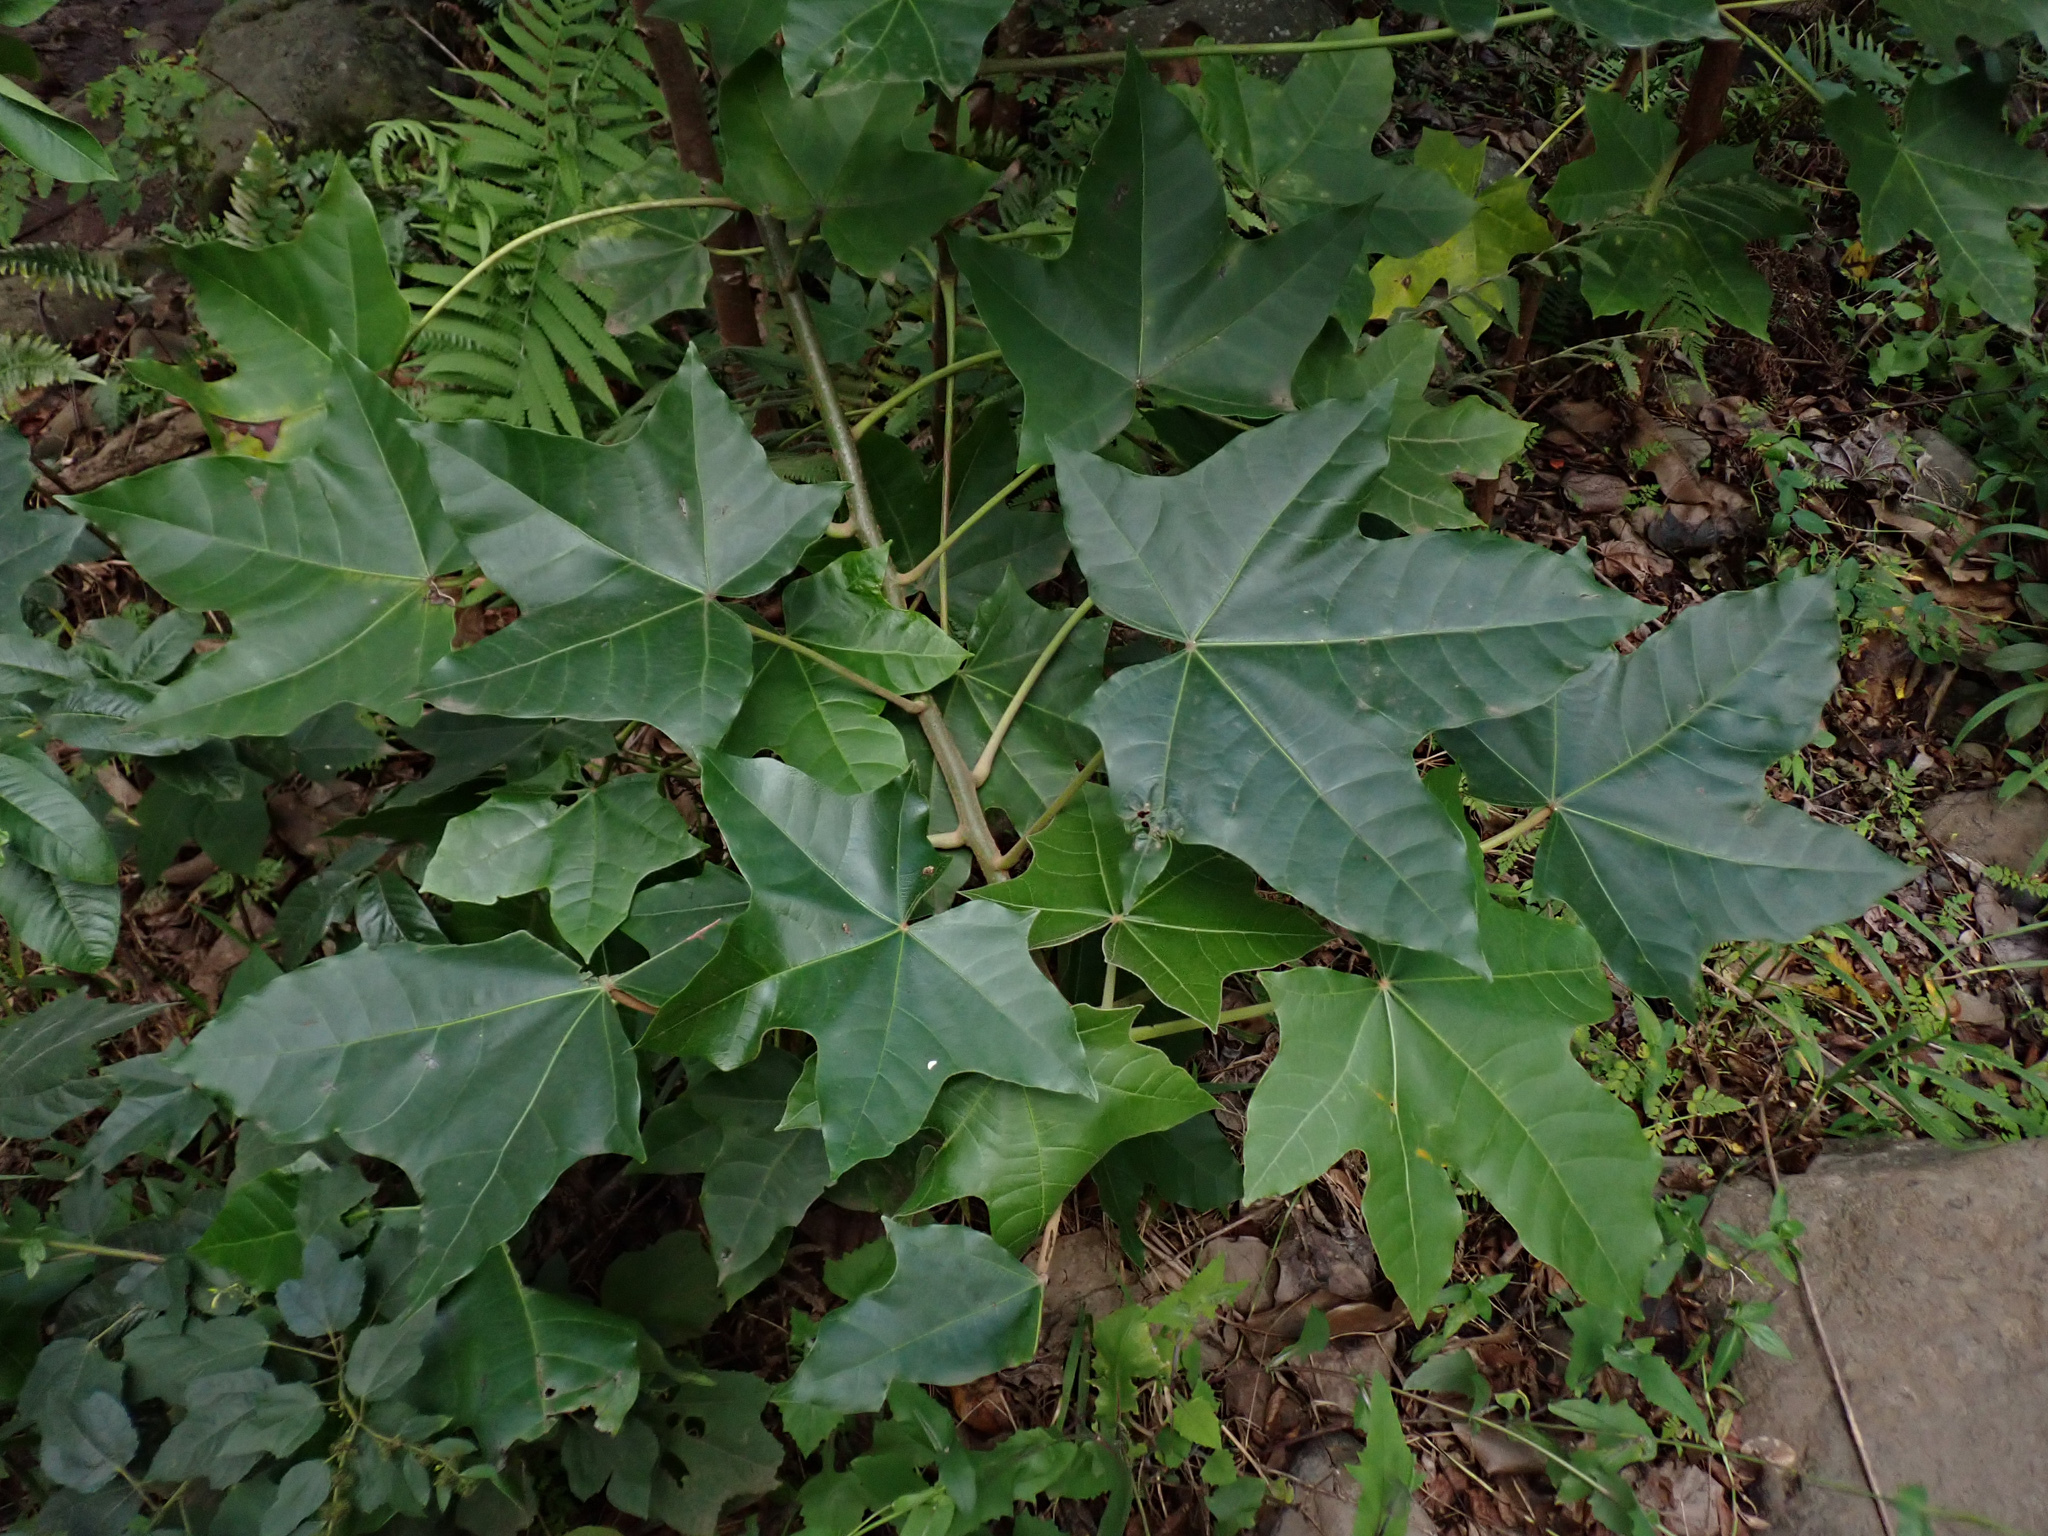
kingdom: Plantae
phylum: Tracheophyta
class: Magnoliopsida
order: Malpighiales
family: Euphorbiaceae
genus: Aleurites
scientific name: Aleurites moluccanus
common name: Candlenut tree
